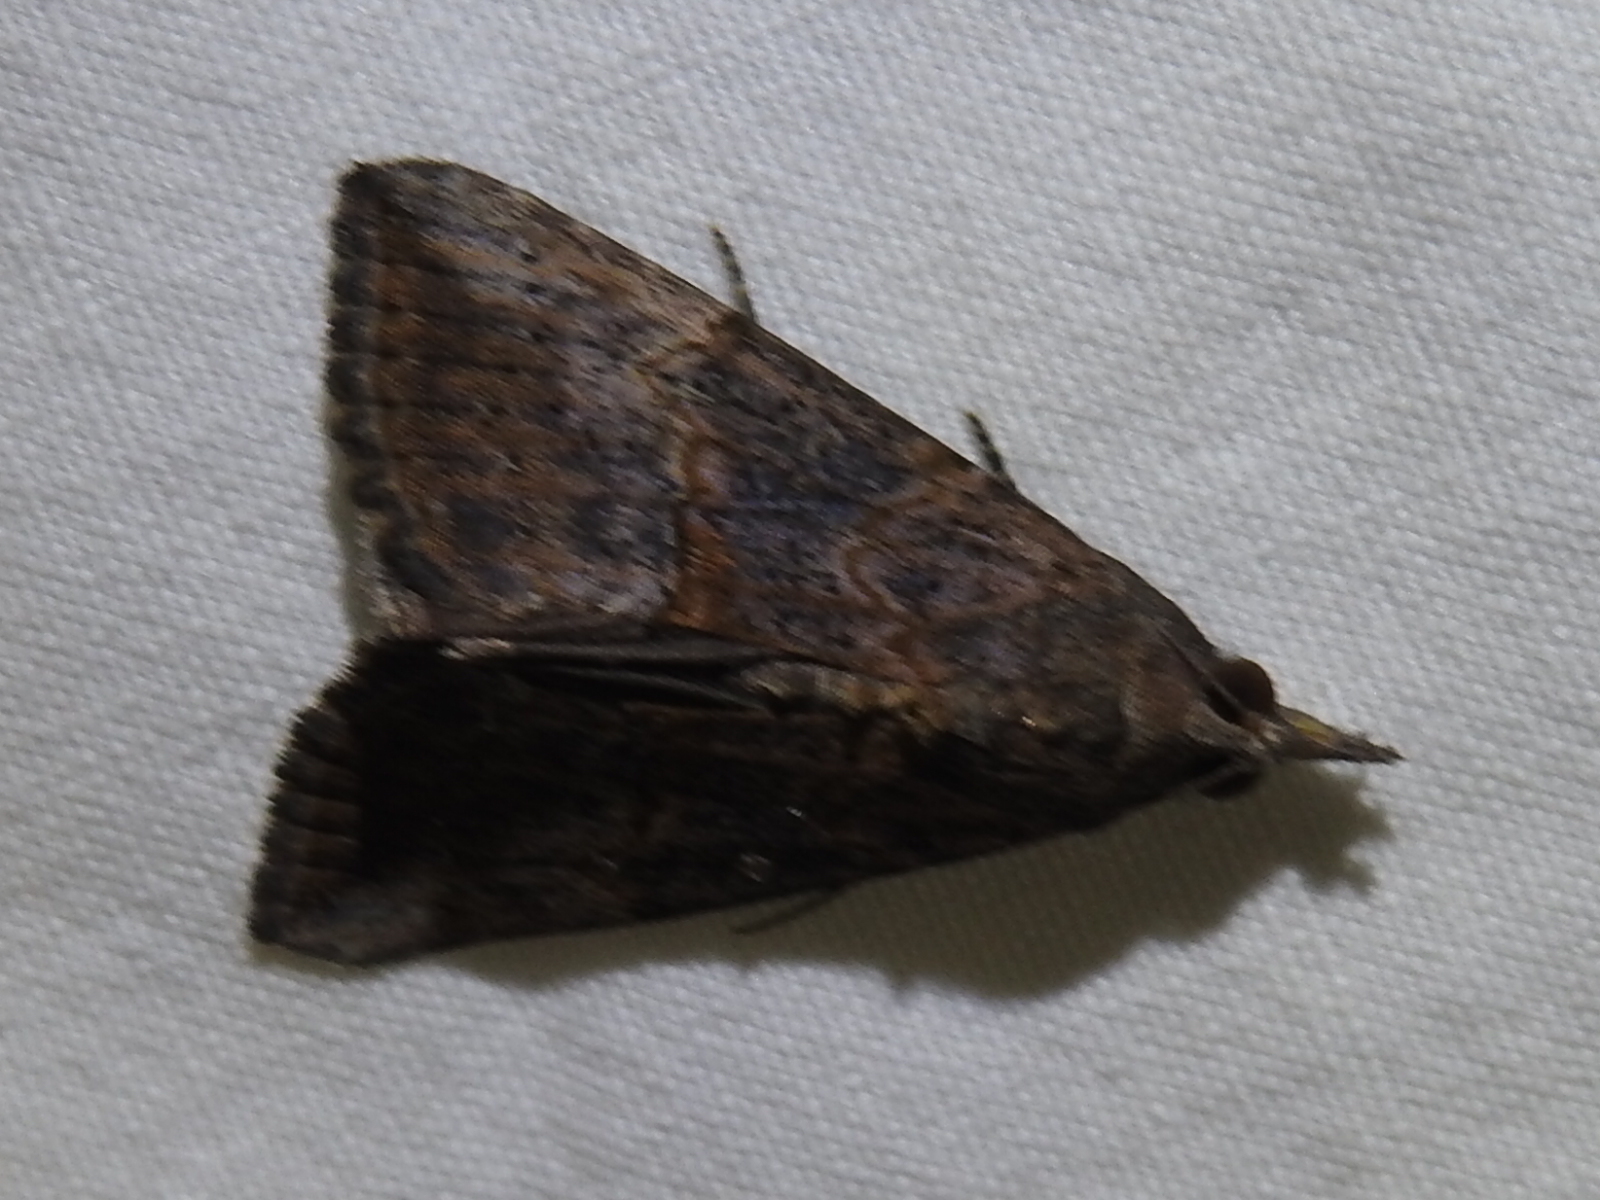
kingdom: Animalia
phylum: Arthropoda
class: Insecta
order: Lepidoptera
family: Erebidae
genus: Hypena
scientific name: Hypena scabra
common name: Green cloverworm
